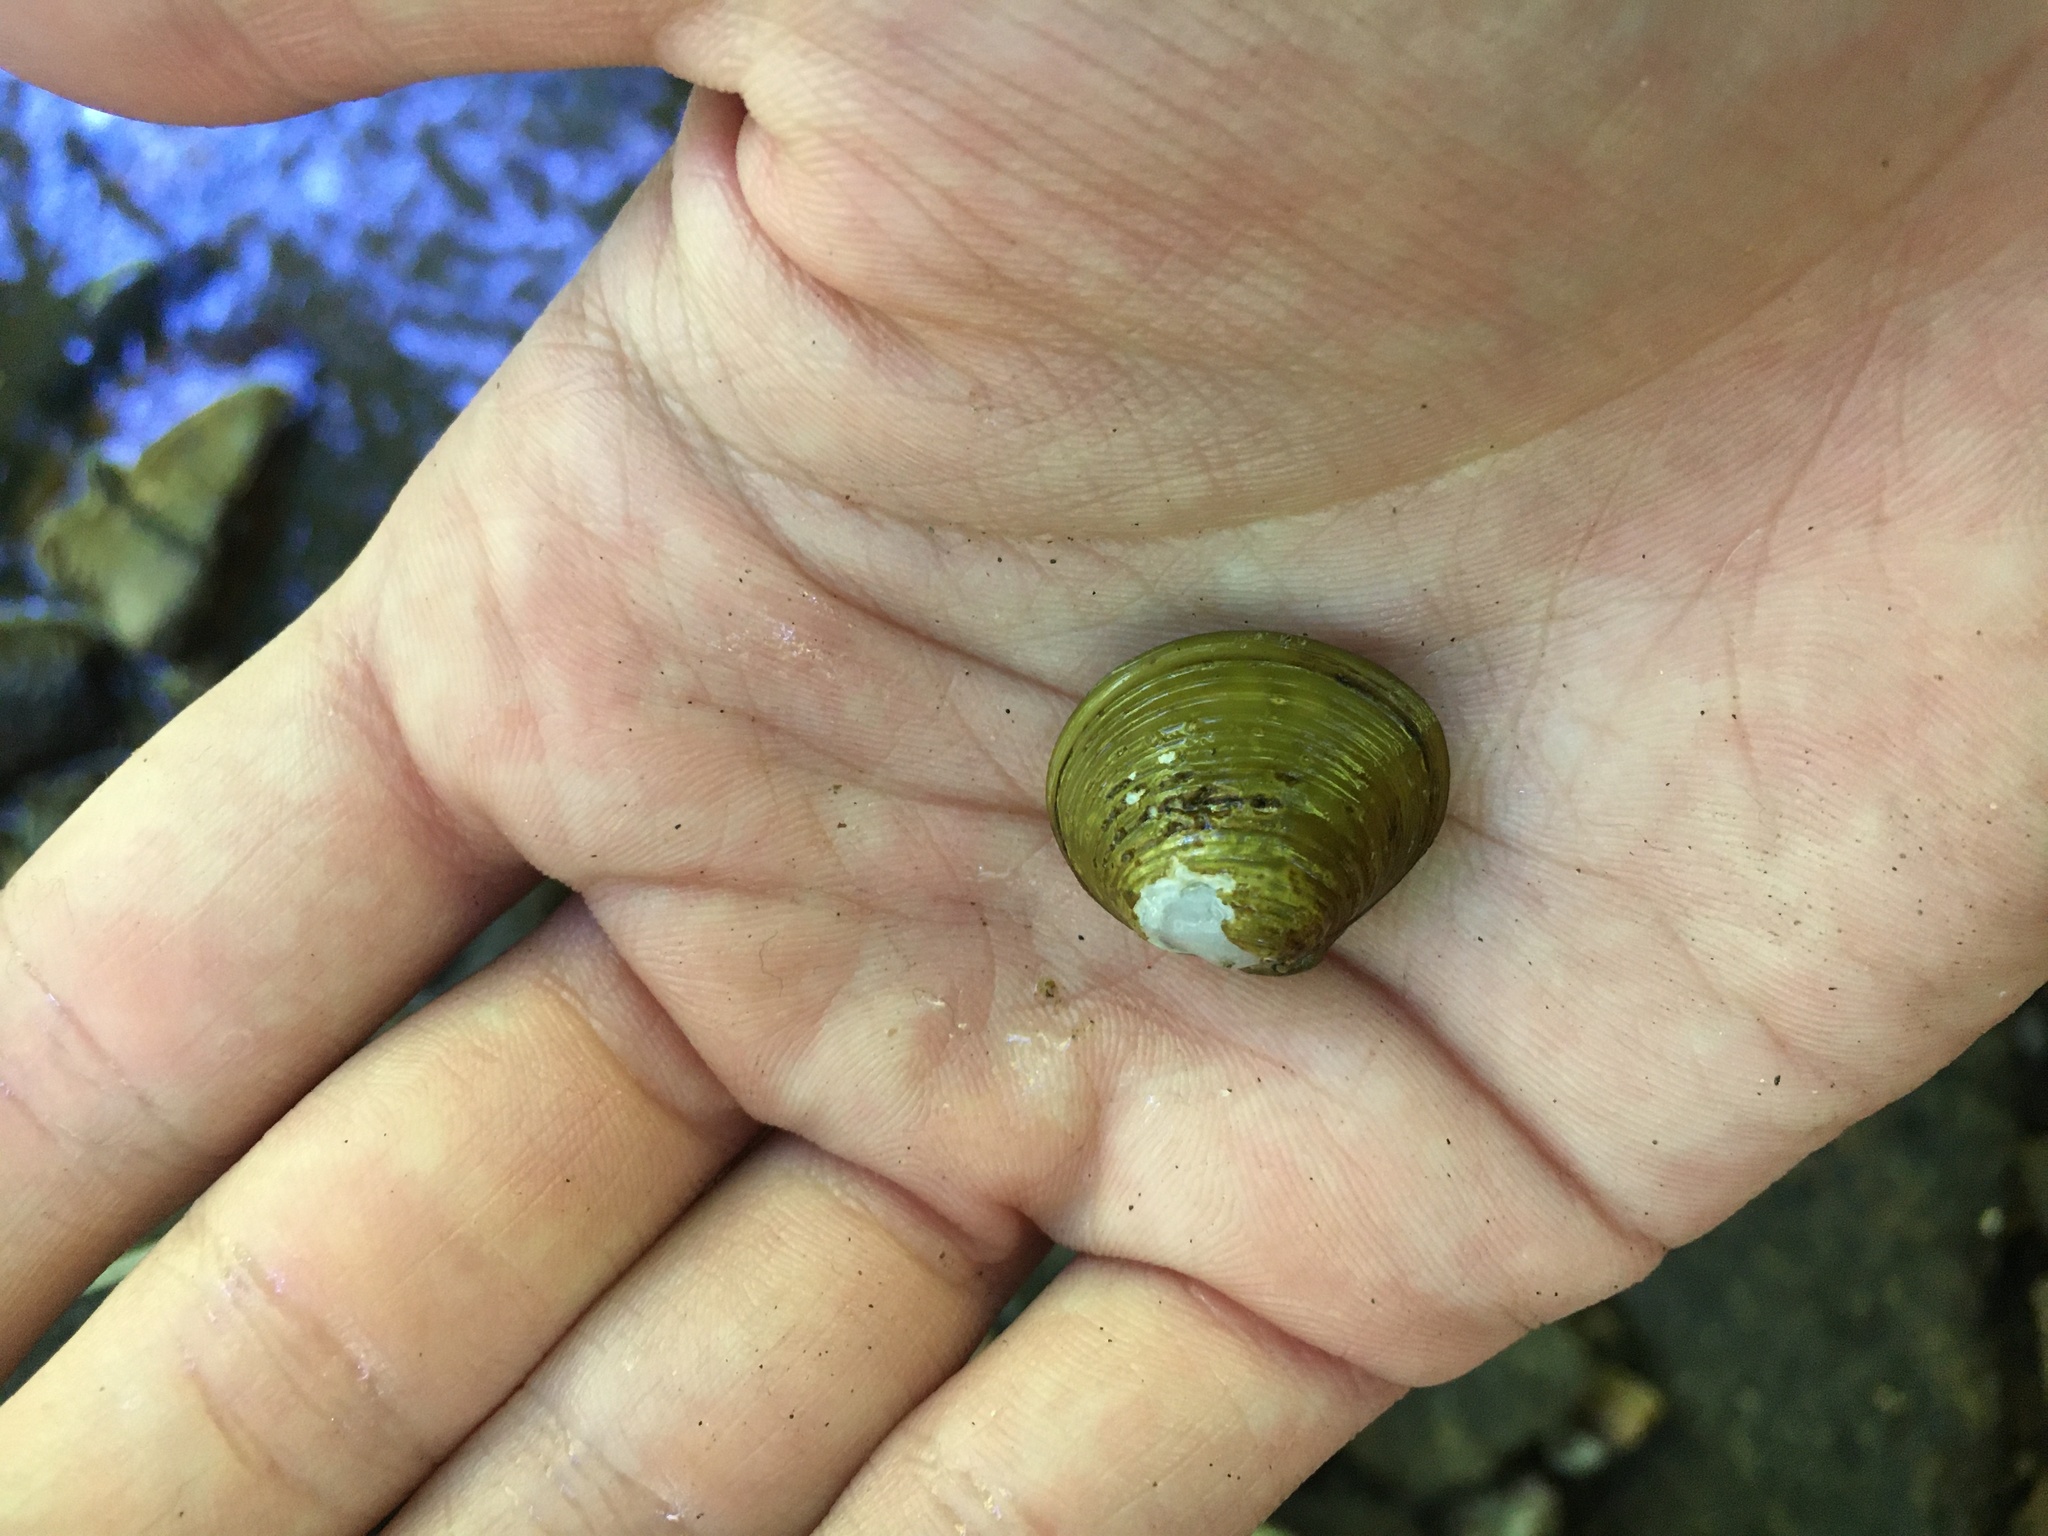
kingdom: Animalia
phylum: Mollusca
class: Bivalvia
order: Venerida
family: Cyrenidae
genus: Corbicula
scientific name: Corbicula fluminea
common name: Asian clam
